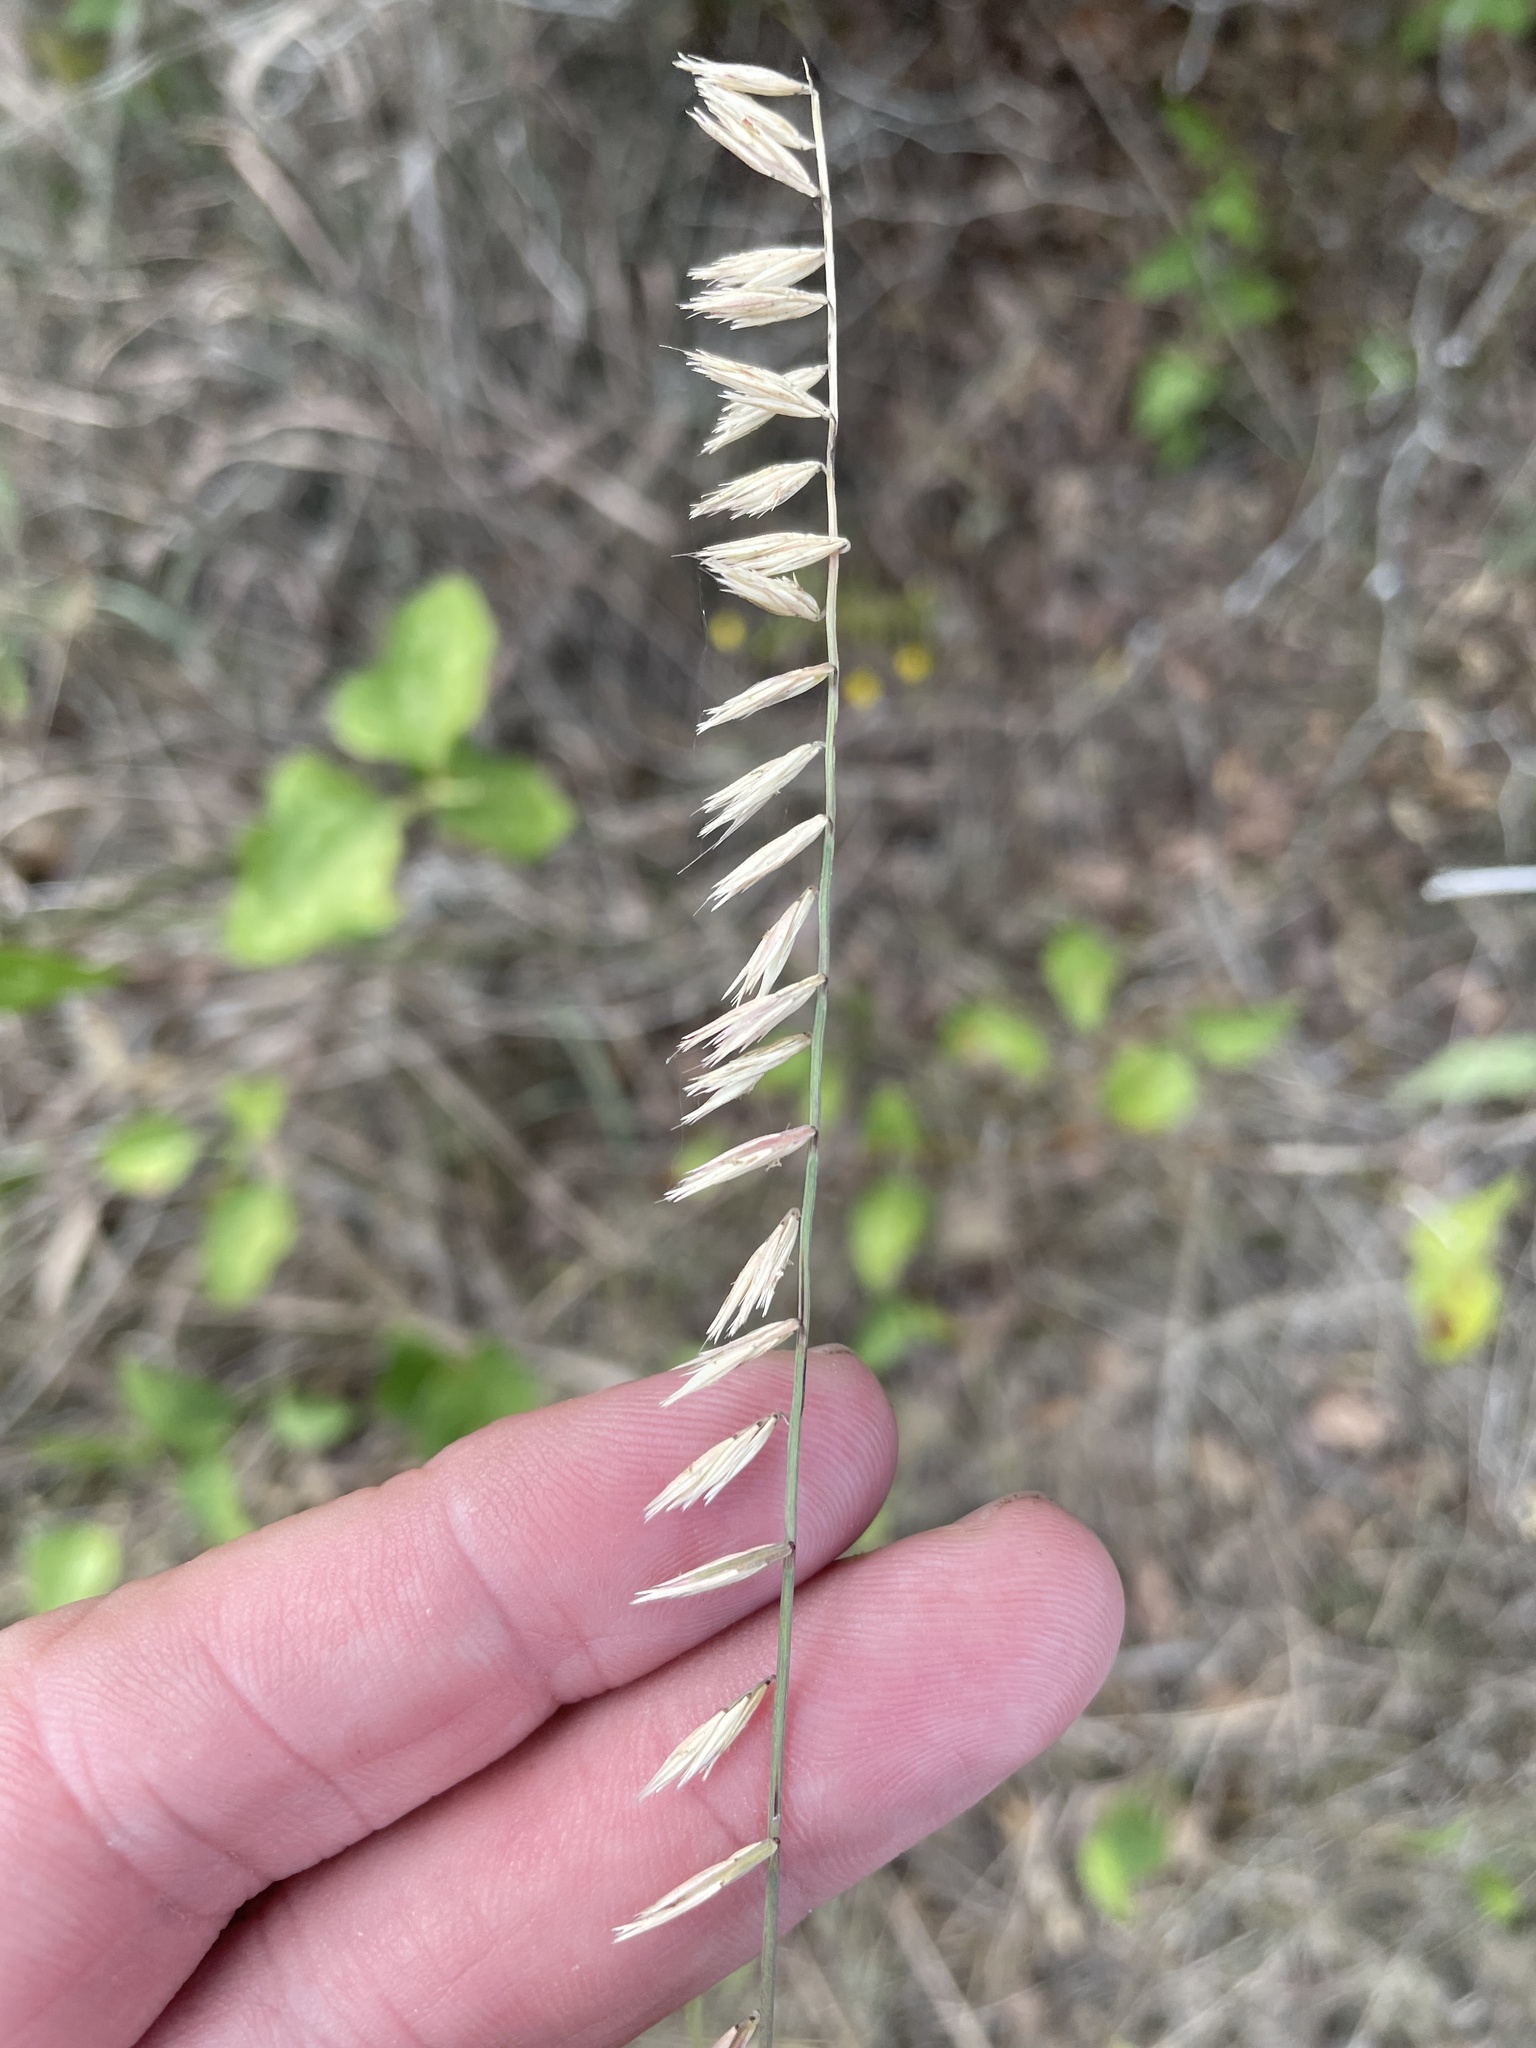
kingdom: Plantae
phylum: Tracheophyta
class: Liliopsida
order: Poales
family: Poaceae
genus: Bouteloua
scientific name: Bouteloua curtipendula
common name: Side-oats grama
